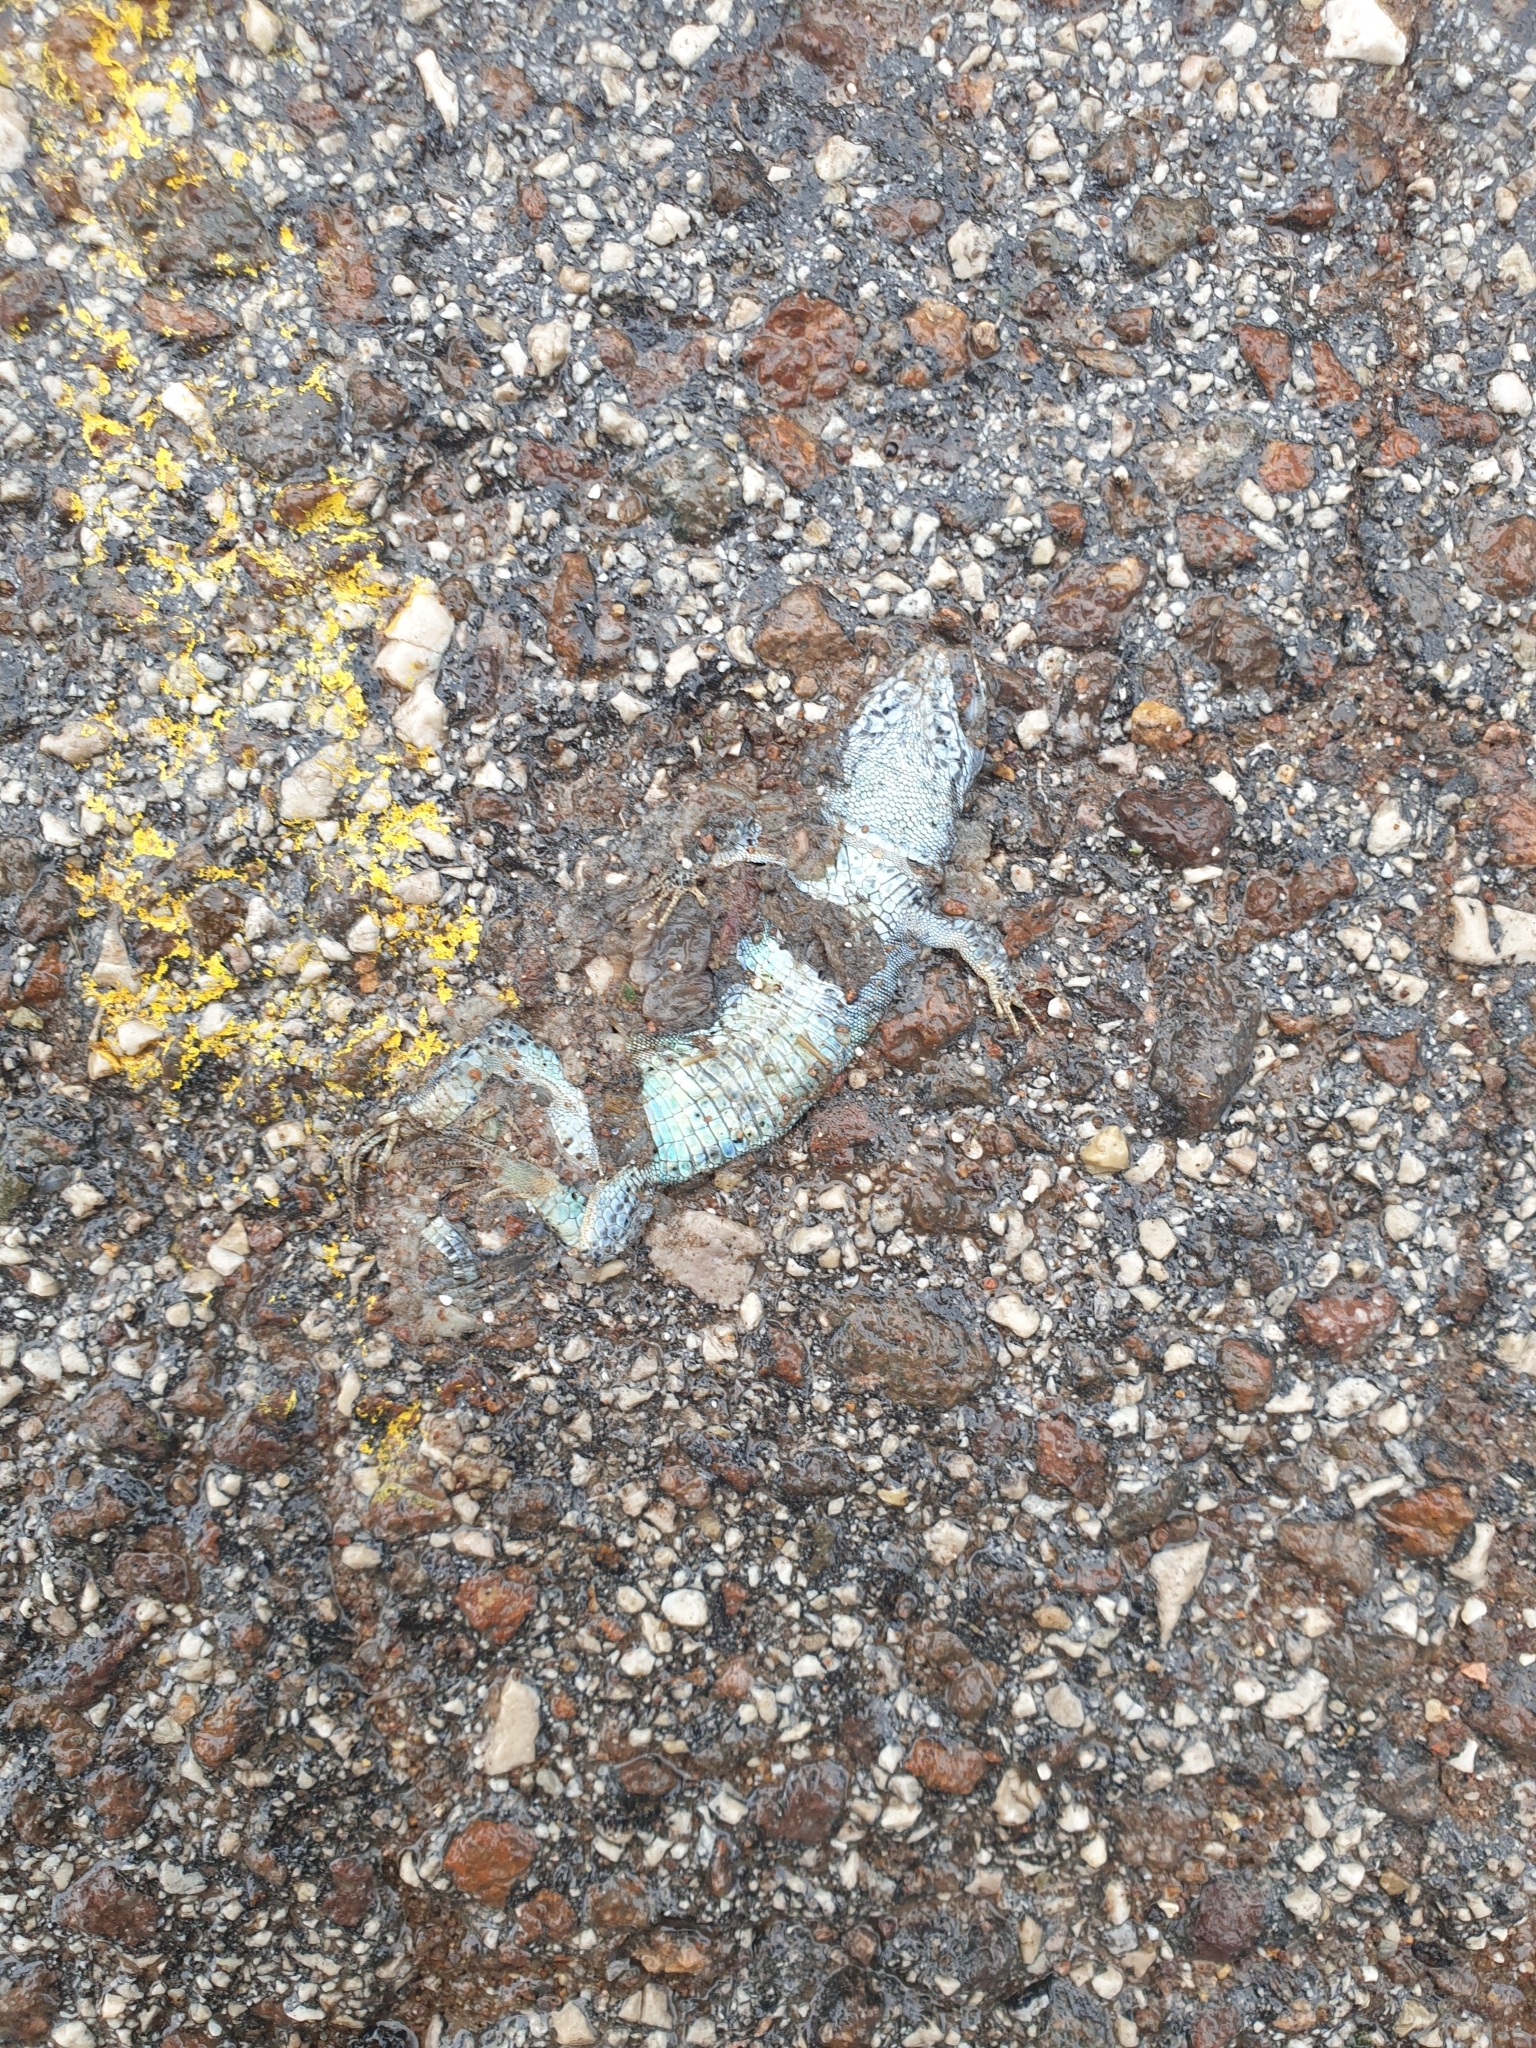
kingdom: Animalia
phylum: Chordata
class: Squamata
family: Lacertidae
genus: Podarcis
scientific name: Podarcis muralis
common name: Common wall lizard
